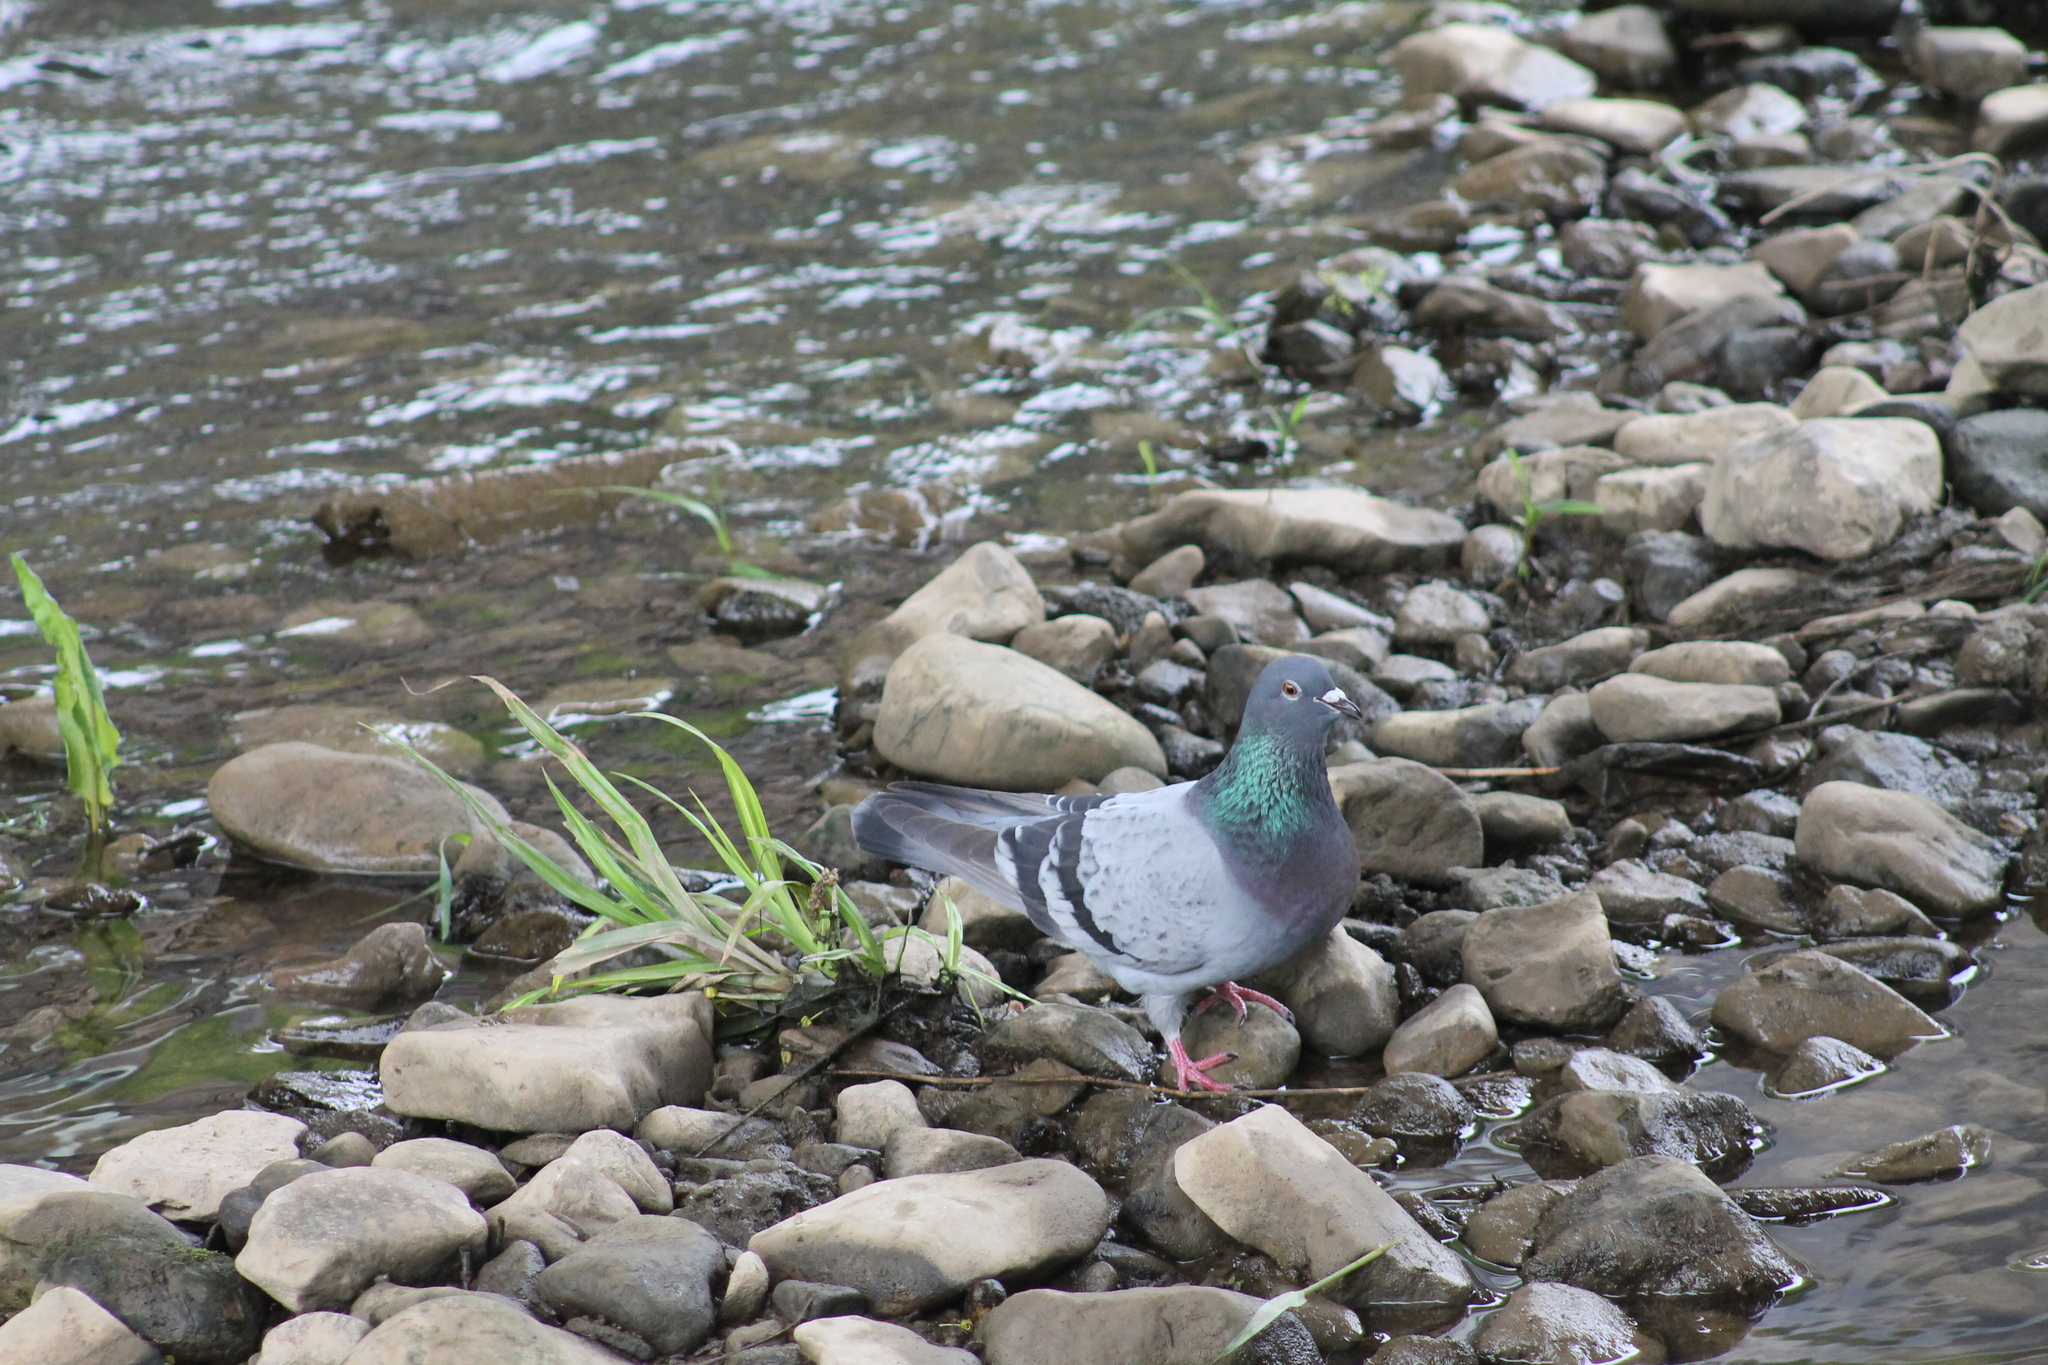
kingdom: Animalia
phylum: Chordata
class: Aves
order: Columbiformes
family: Columbidae
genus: Columba
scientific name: Columba livia
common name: Rock pigeon
